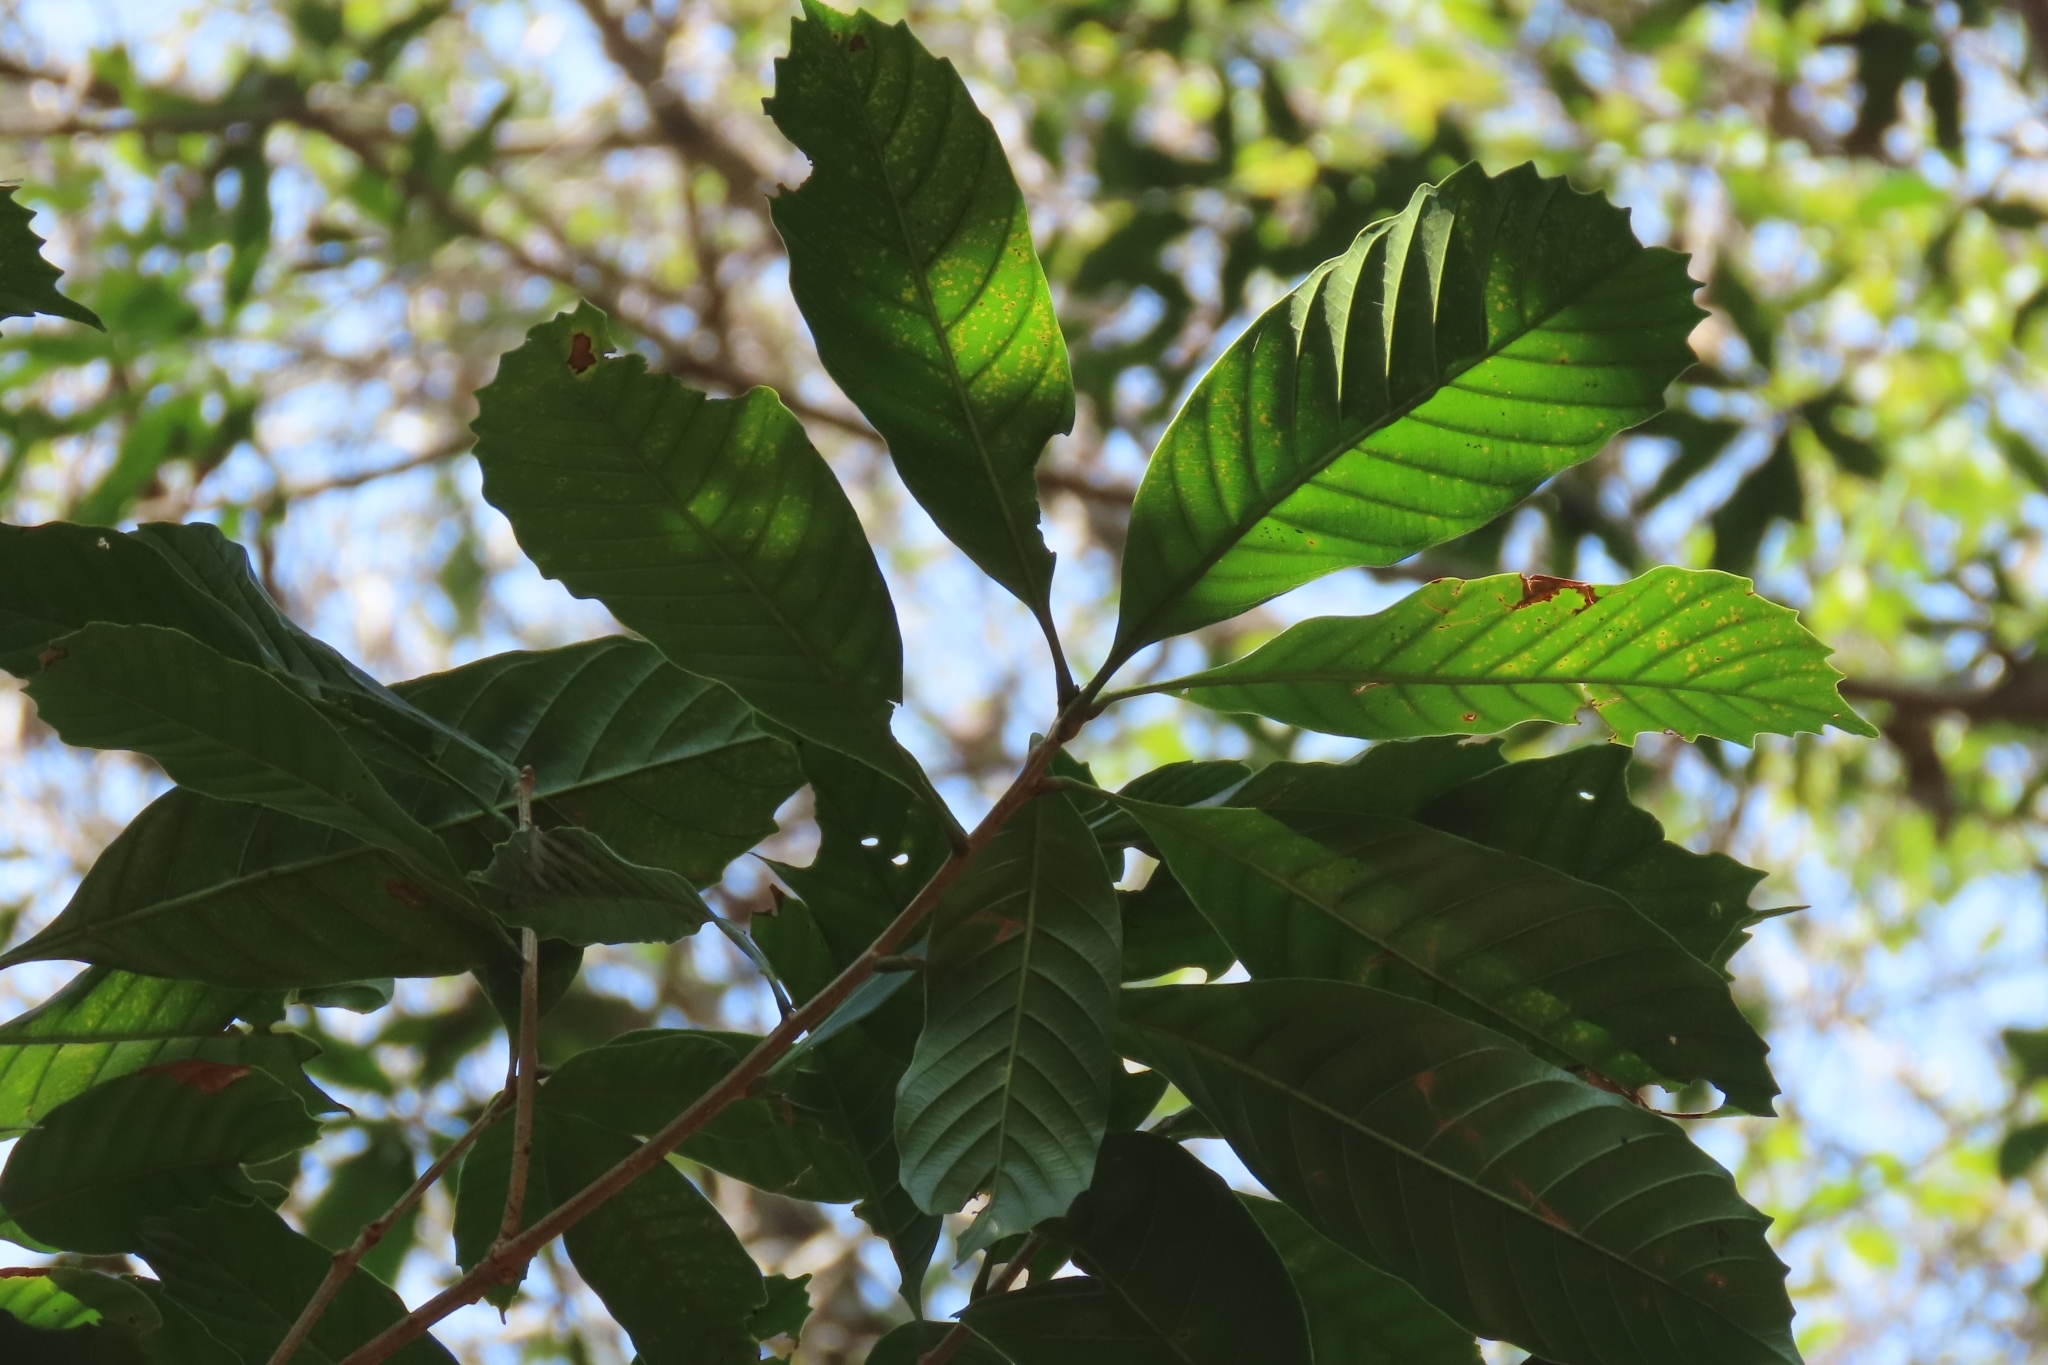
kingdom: Plantae
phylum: Tracheophyta
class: Magnoliopsida
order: Fagales
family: Fagaceae
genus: Lithocarpus
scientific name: Lithocarpus kawakamii
